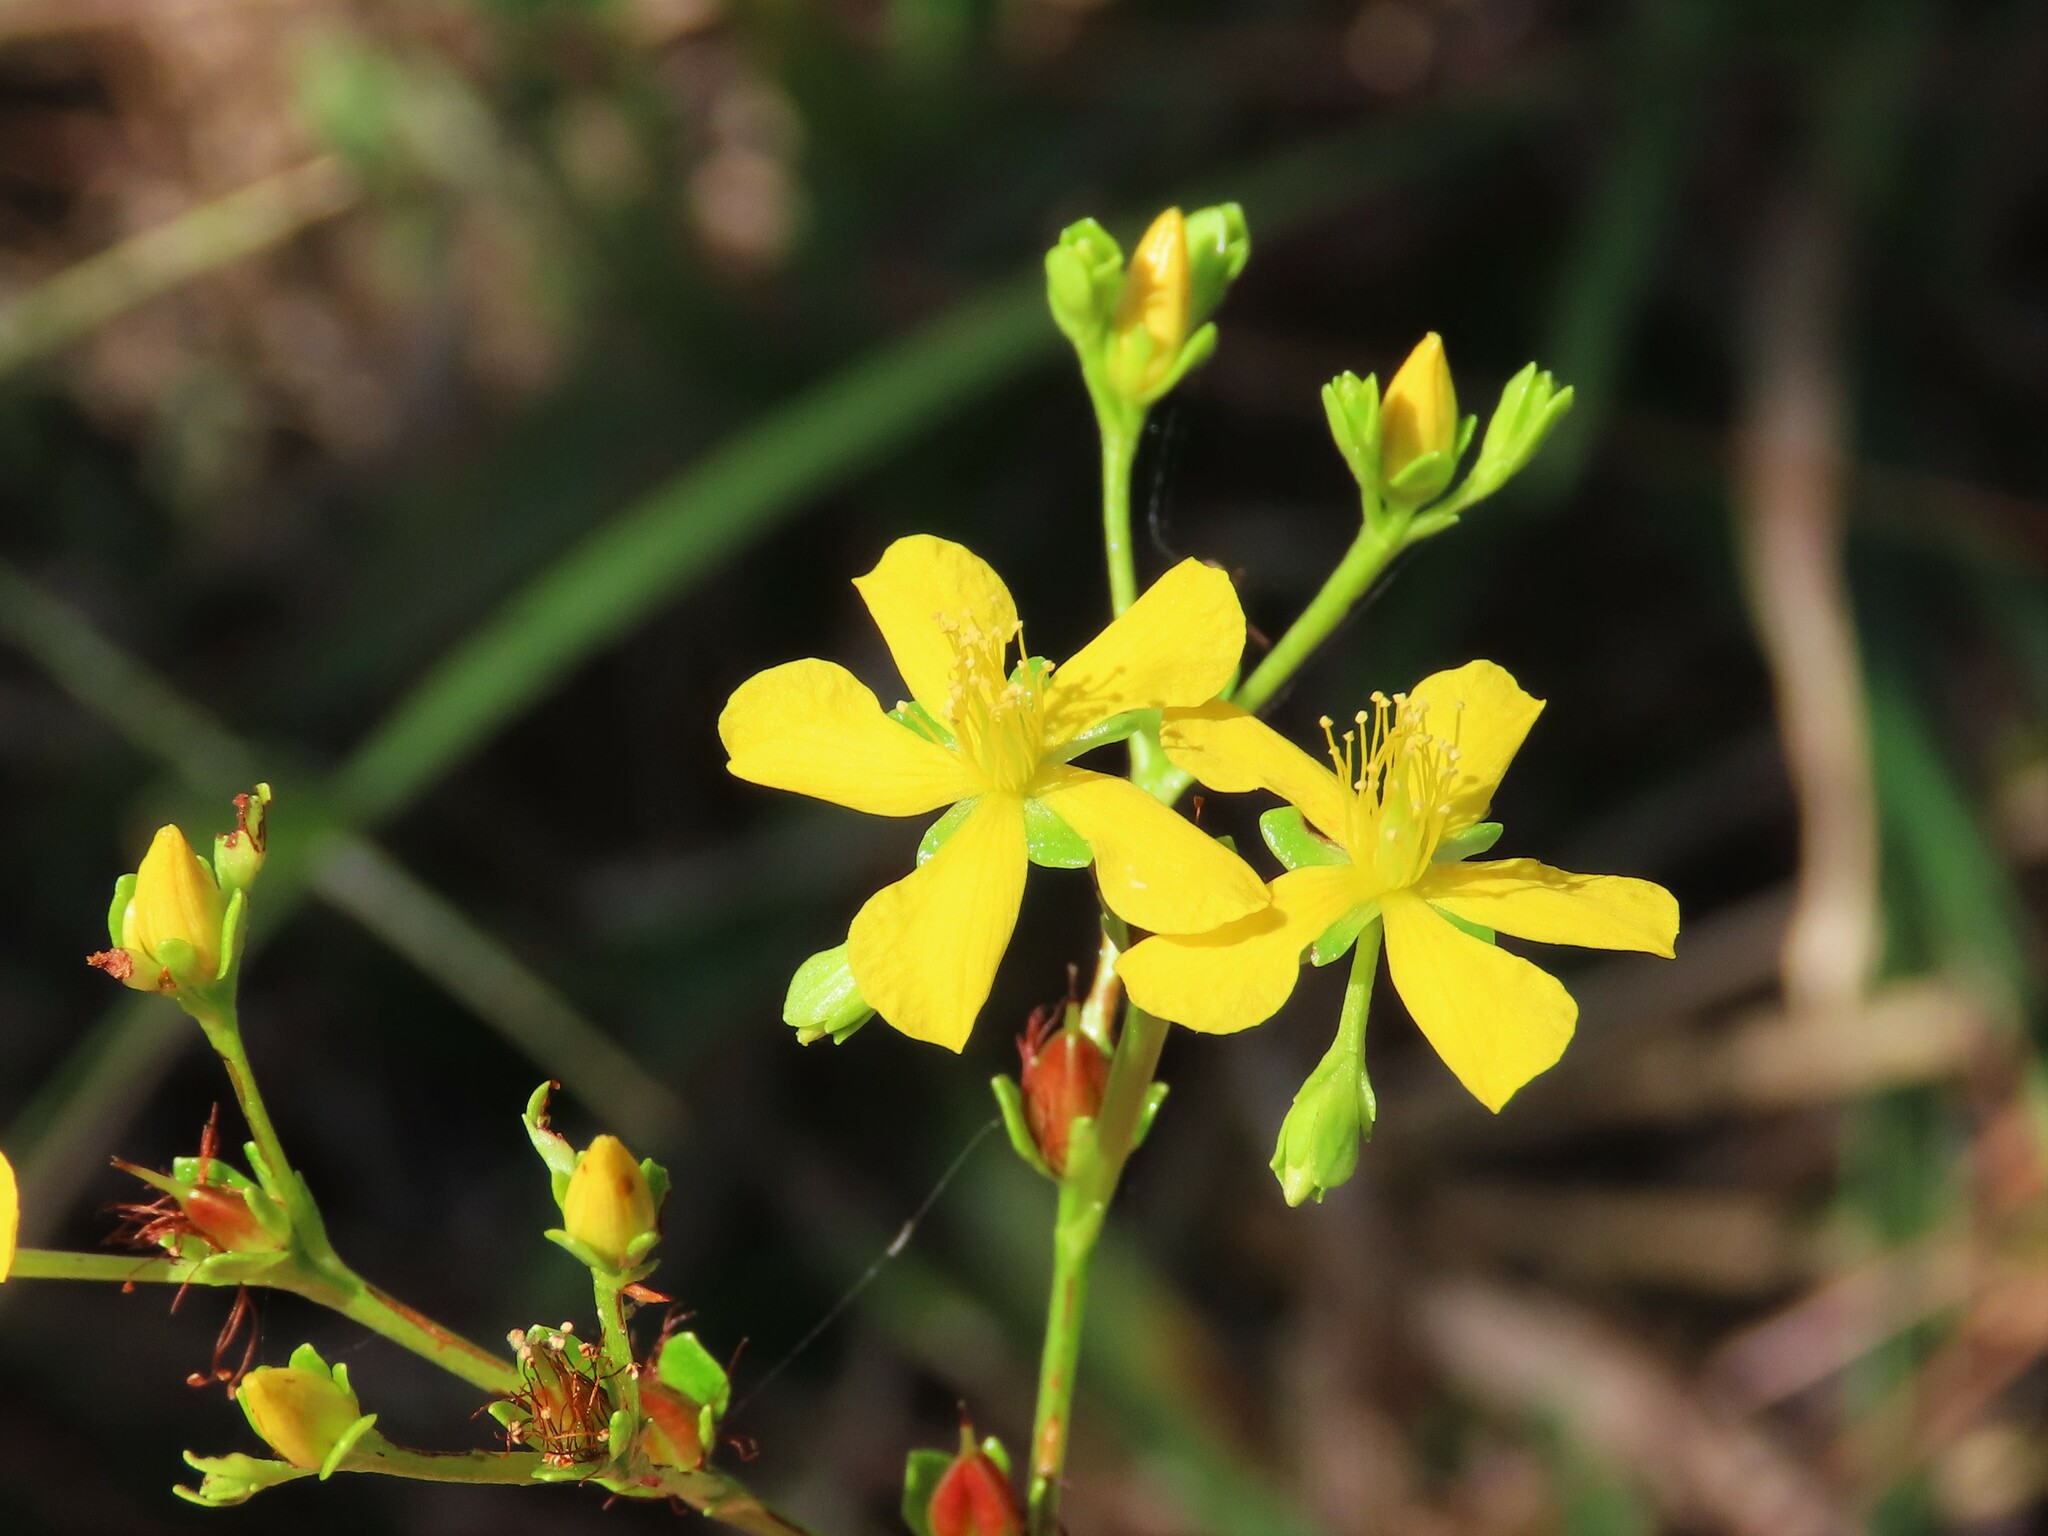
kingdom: Plantae
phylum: Tracheophyta
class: Magnoliopsida
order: Malpighiales
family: Hypericaceae
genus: Hypericum
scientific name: Hypericum cistifolium
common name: Round-pod st. john's-wort
